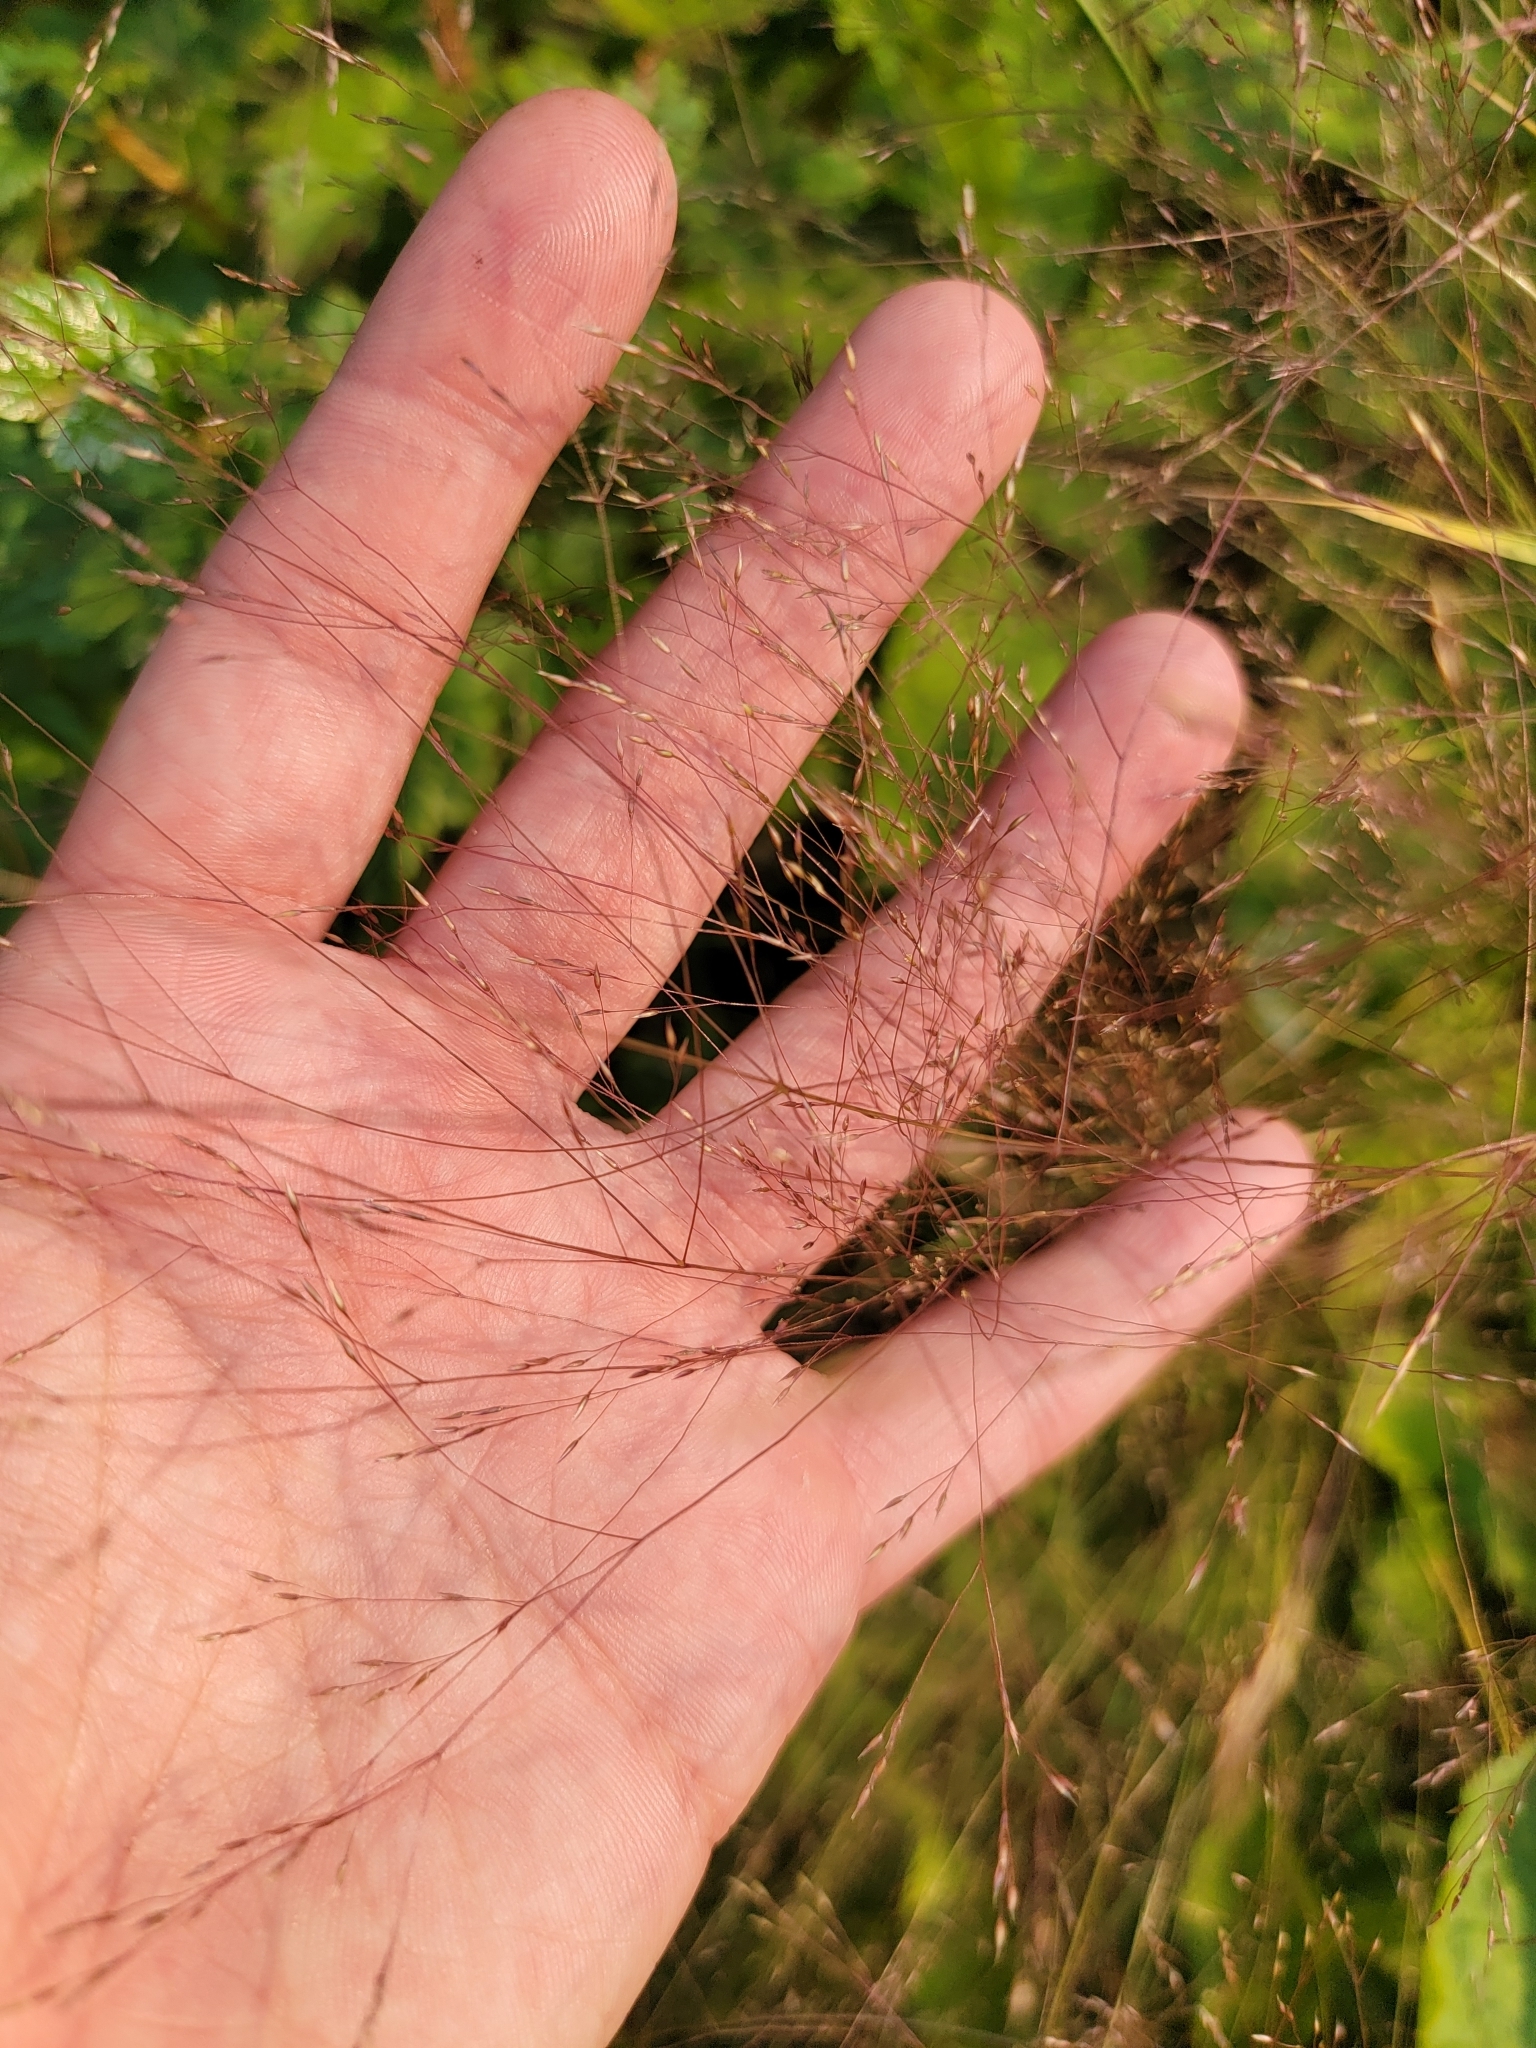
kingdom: Plantae
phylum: Tracheophyta
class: Liliopsida
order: Poales
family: Poaceae
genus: Agrostis
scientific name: Agrostis scabra
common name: Rough bent
